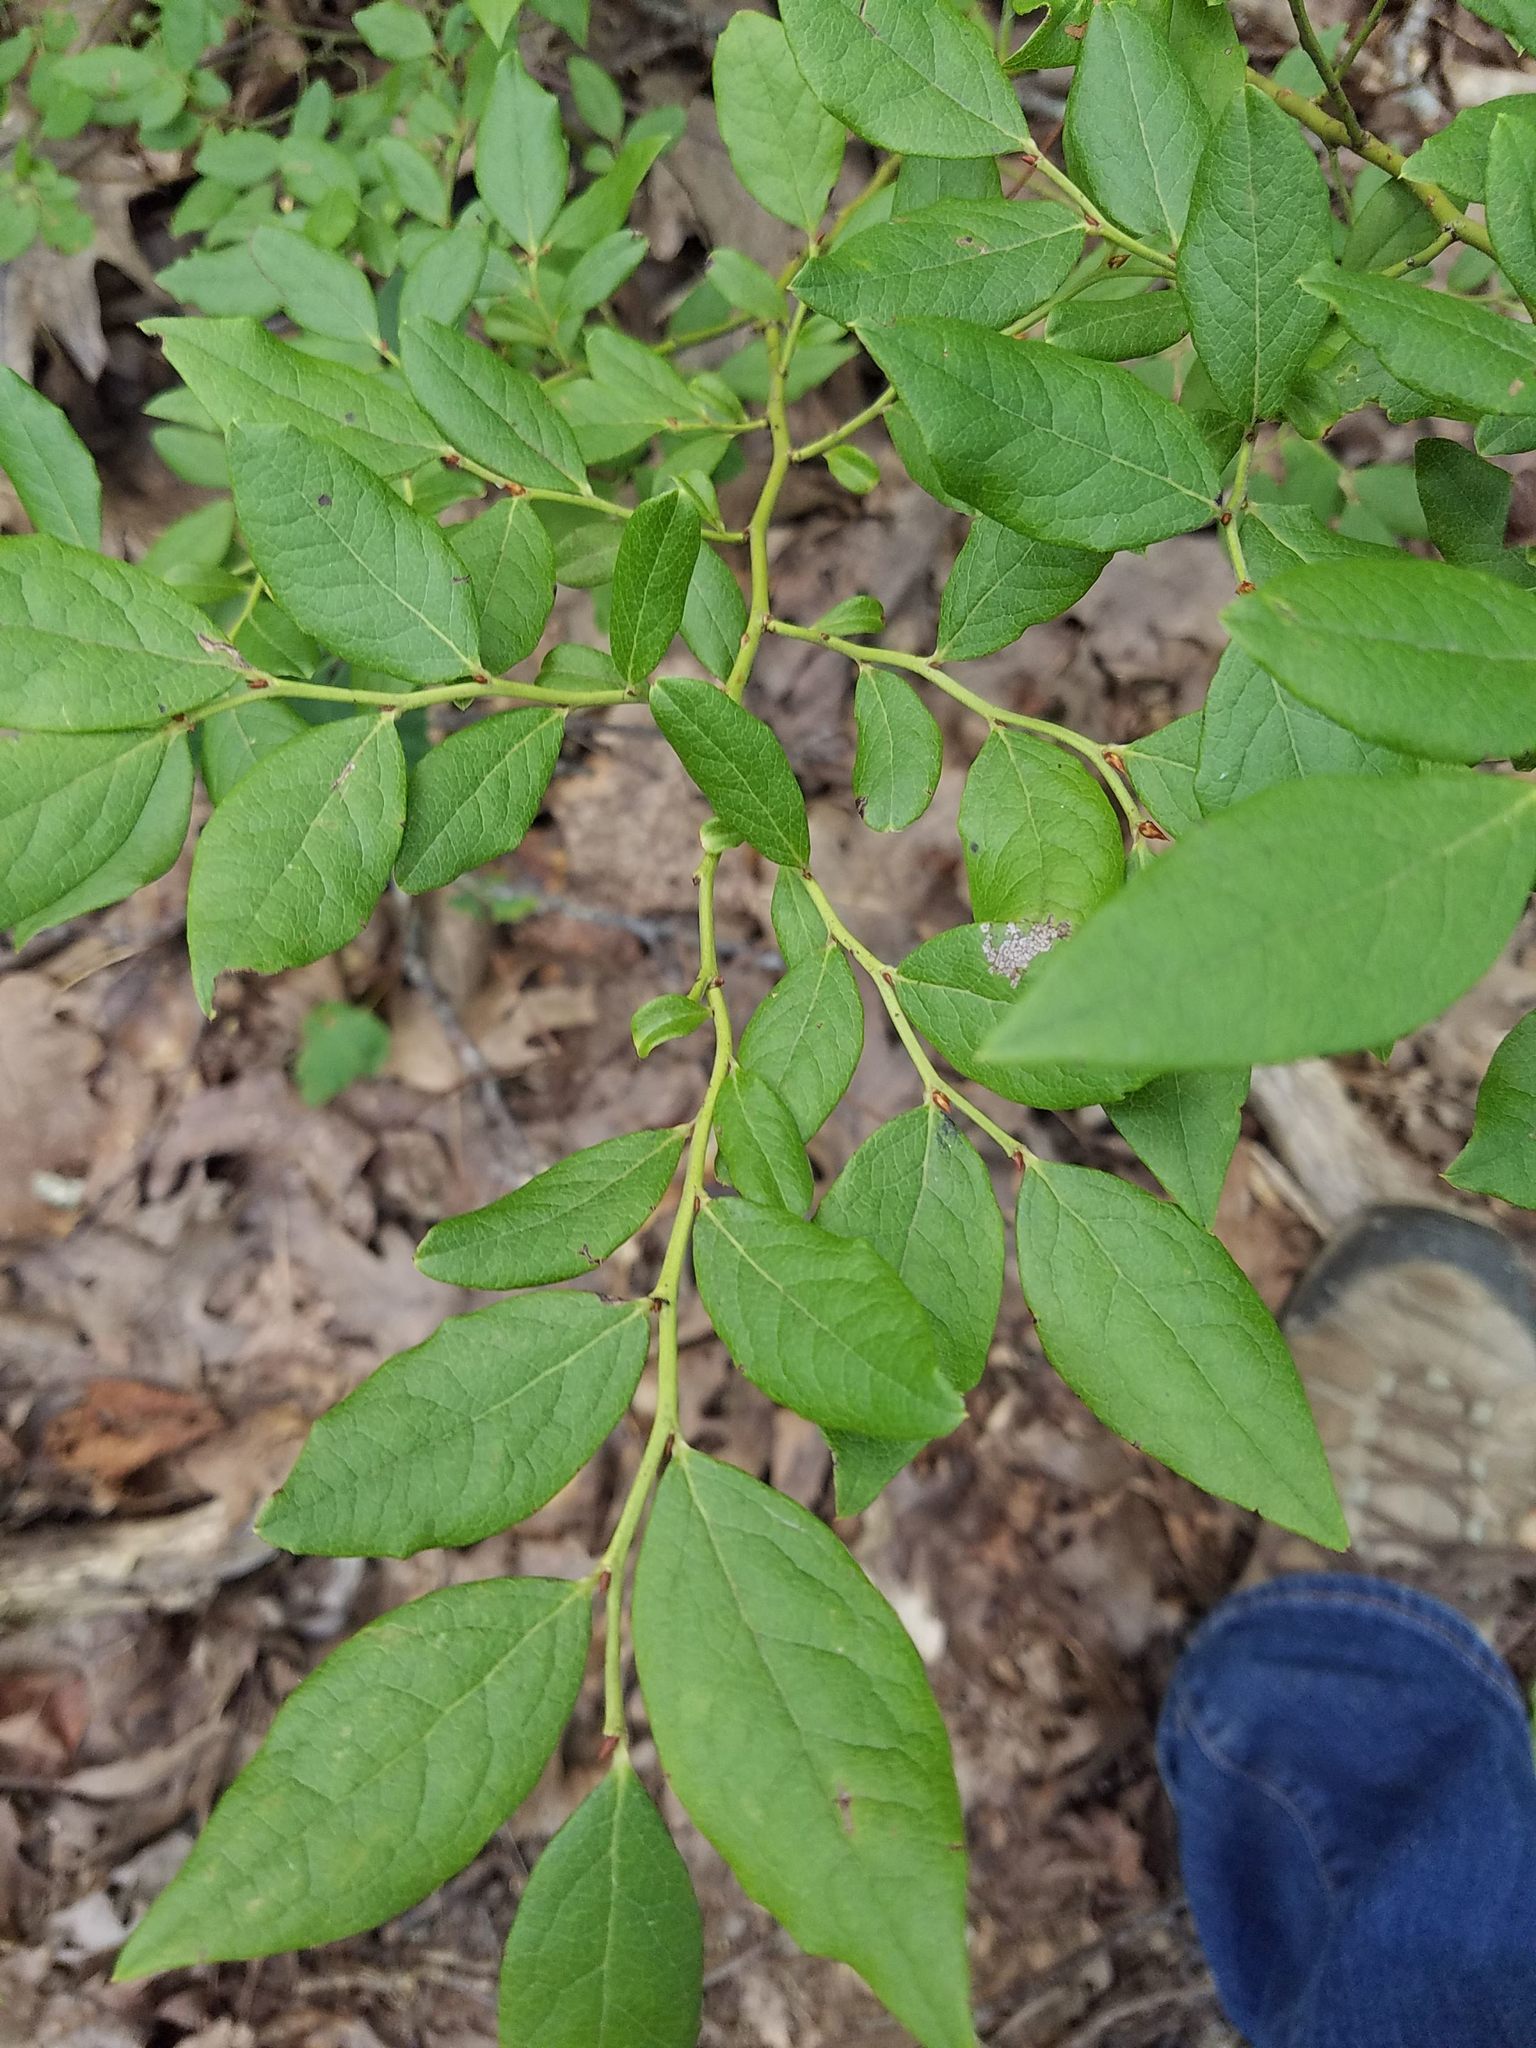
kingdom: Plantae
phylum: Tracheophyta
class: Magnoliopsida
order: Ericales
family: Ericaceae
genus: Vaccinium
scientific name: Vaccinium pallidum
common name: Blue ridge blueberry
